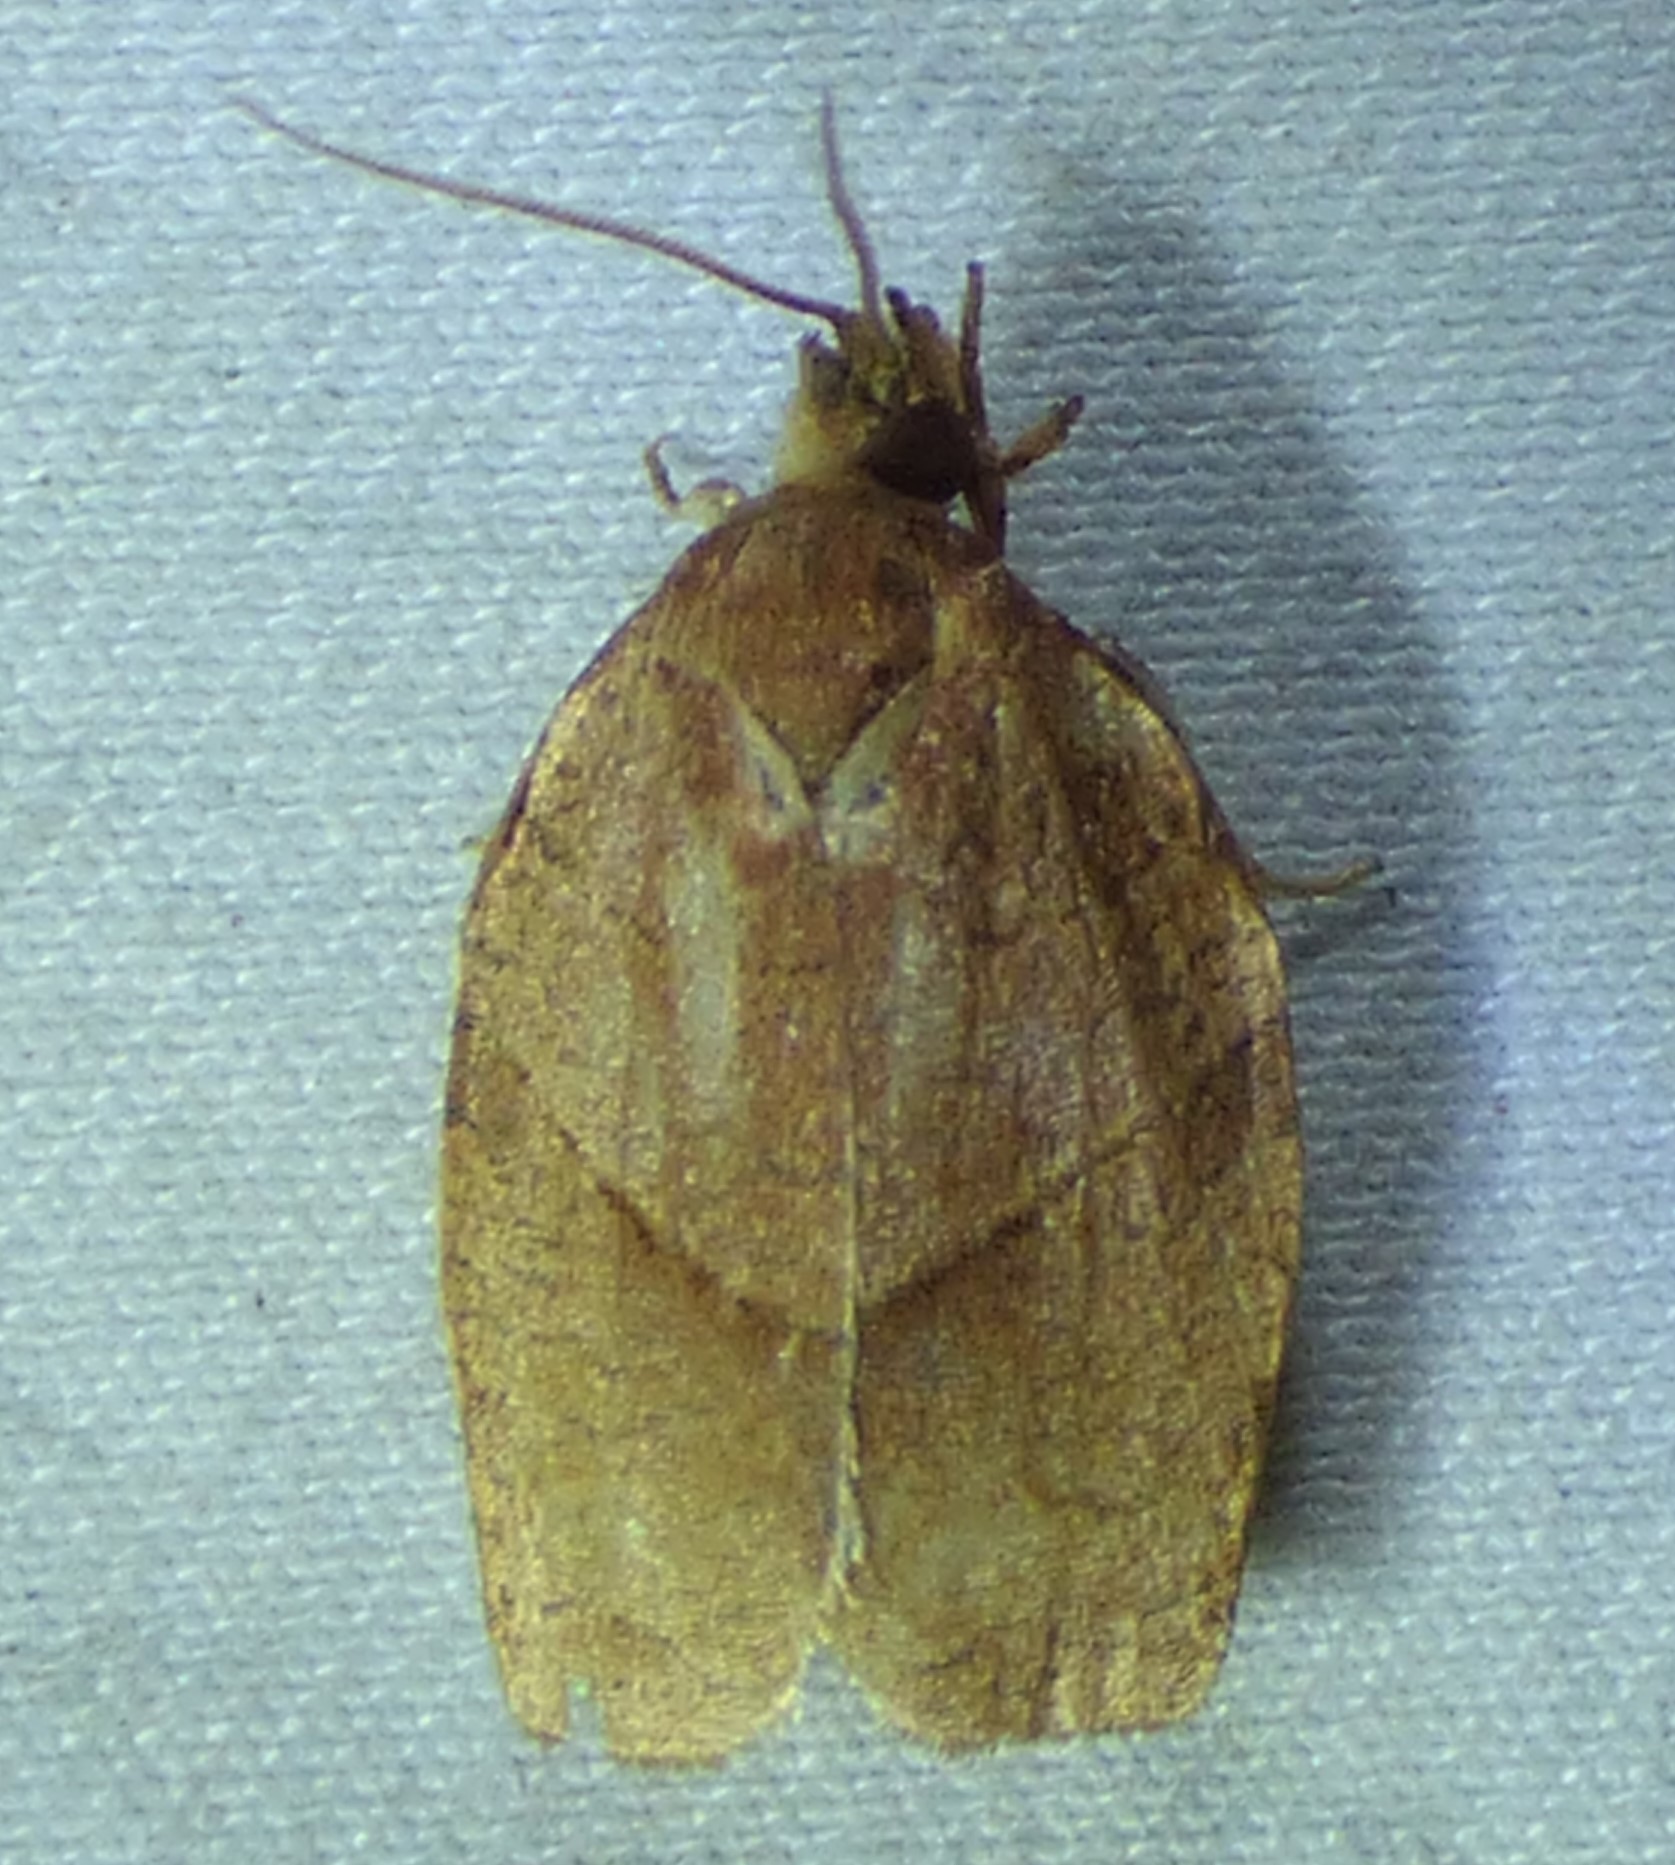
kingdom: Animalia
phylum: Arthropoda
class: Insecta
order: Lepidoptera
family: Tortricidae
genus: Choristoneura
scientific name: Choristoneura rosaceana
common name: Oblique-banded leafroller moth
